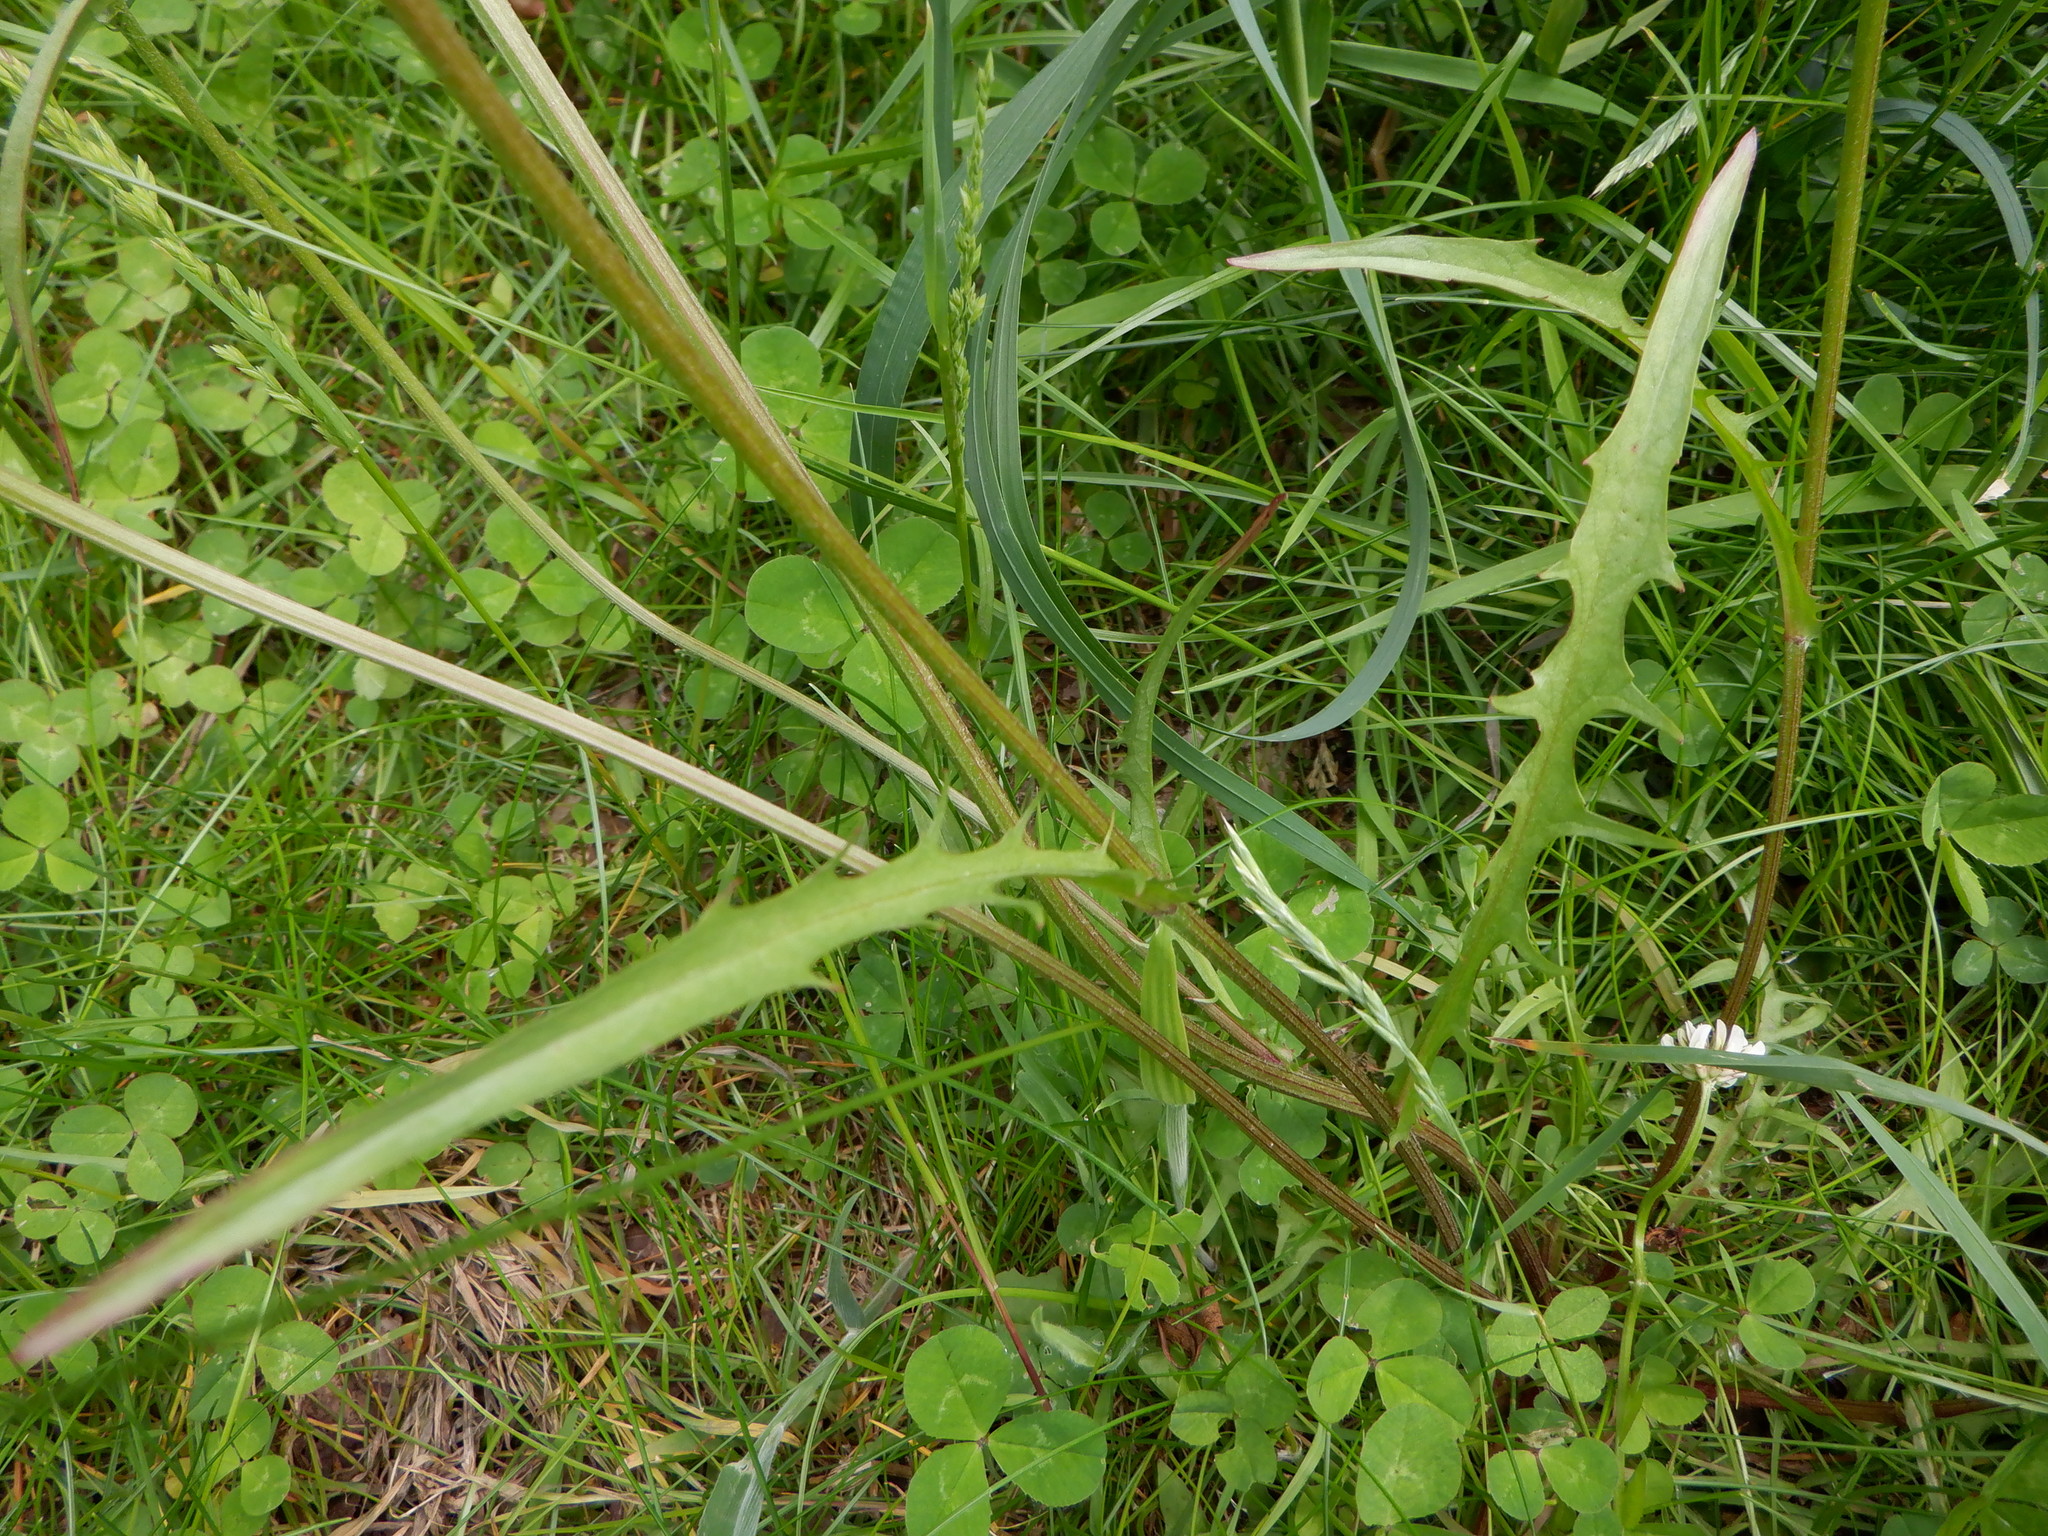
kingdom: Plantae
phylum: Tracheophyta
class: Magnoliopsida
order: Asterales
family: Asteraceae
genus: Crepis
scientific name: Crepis biennis
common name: Rough hawk's-beard
